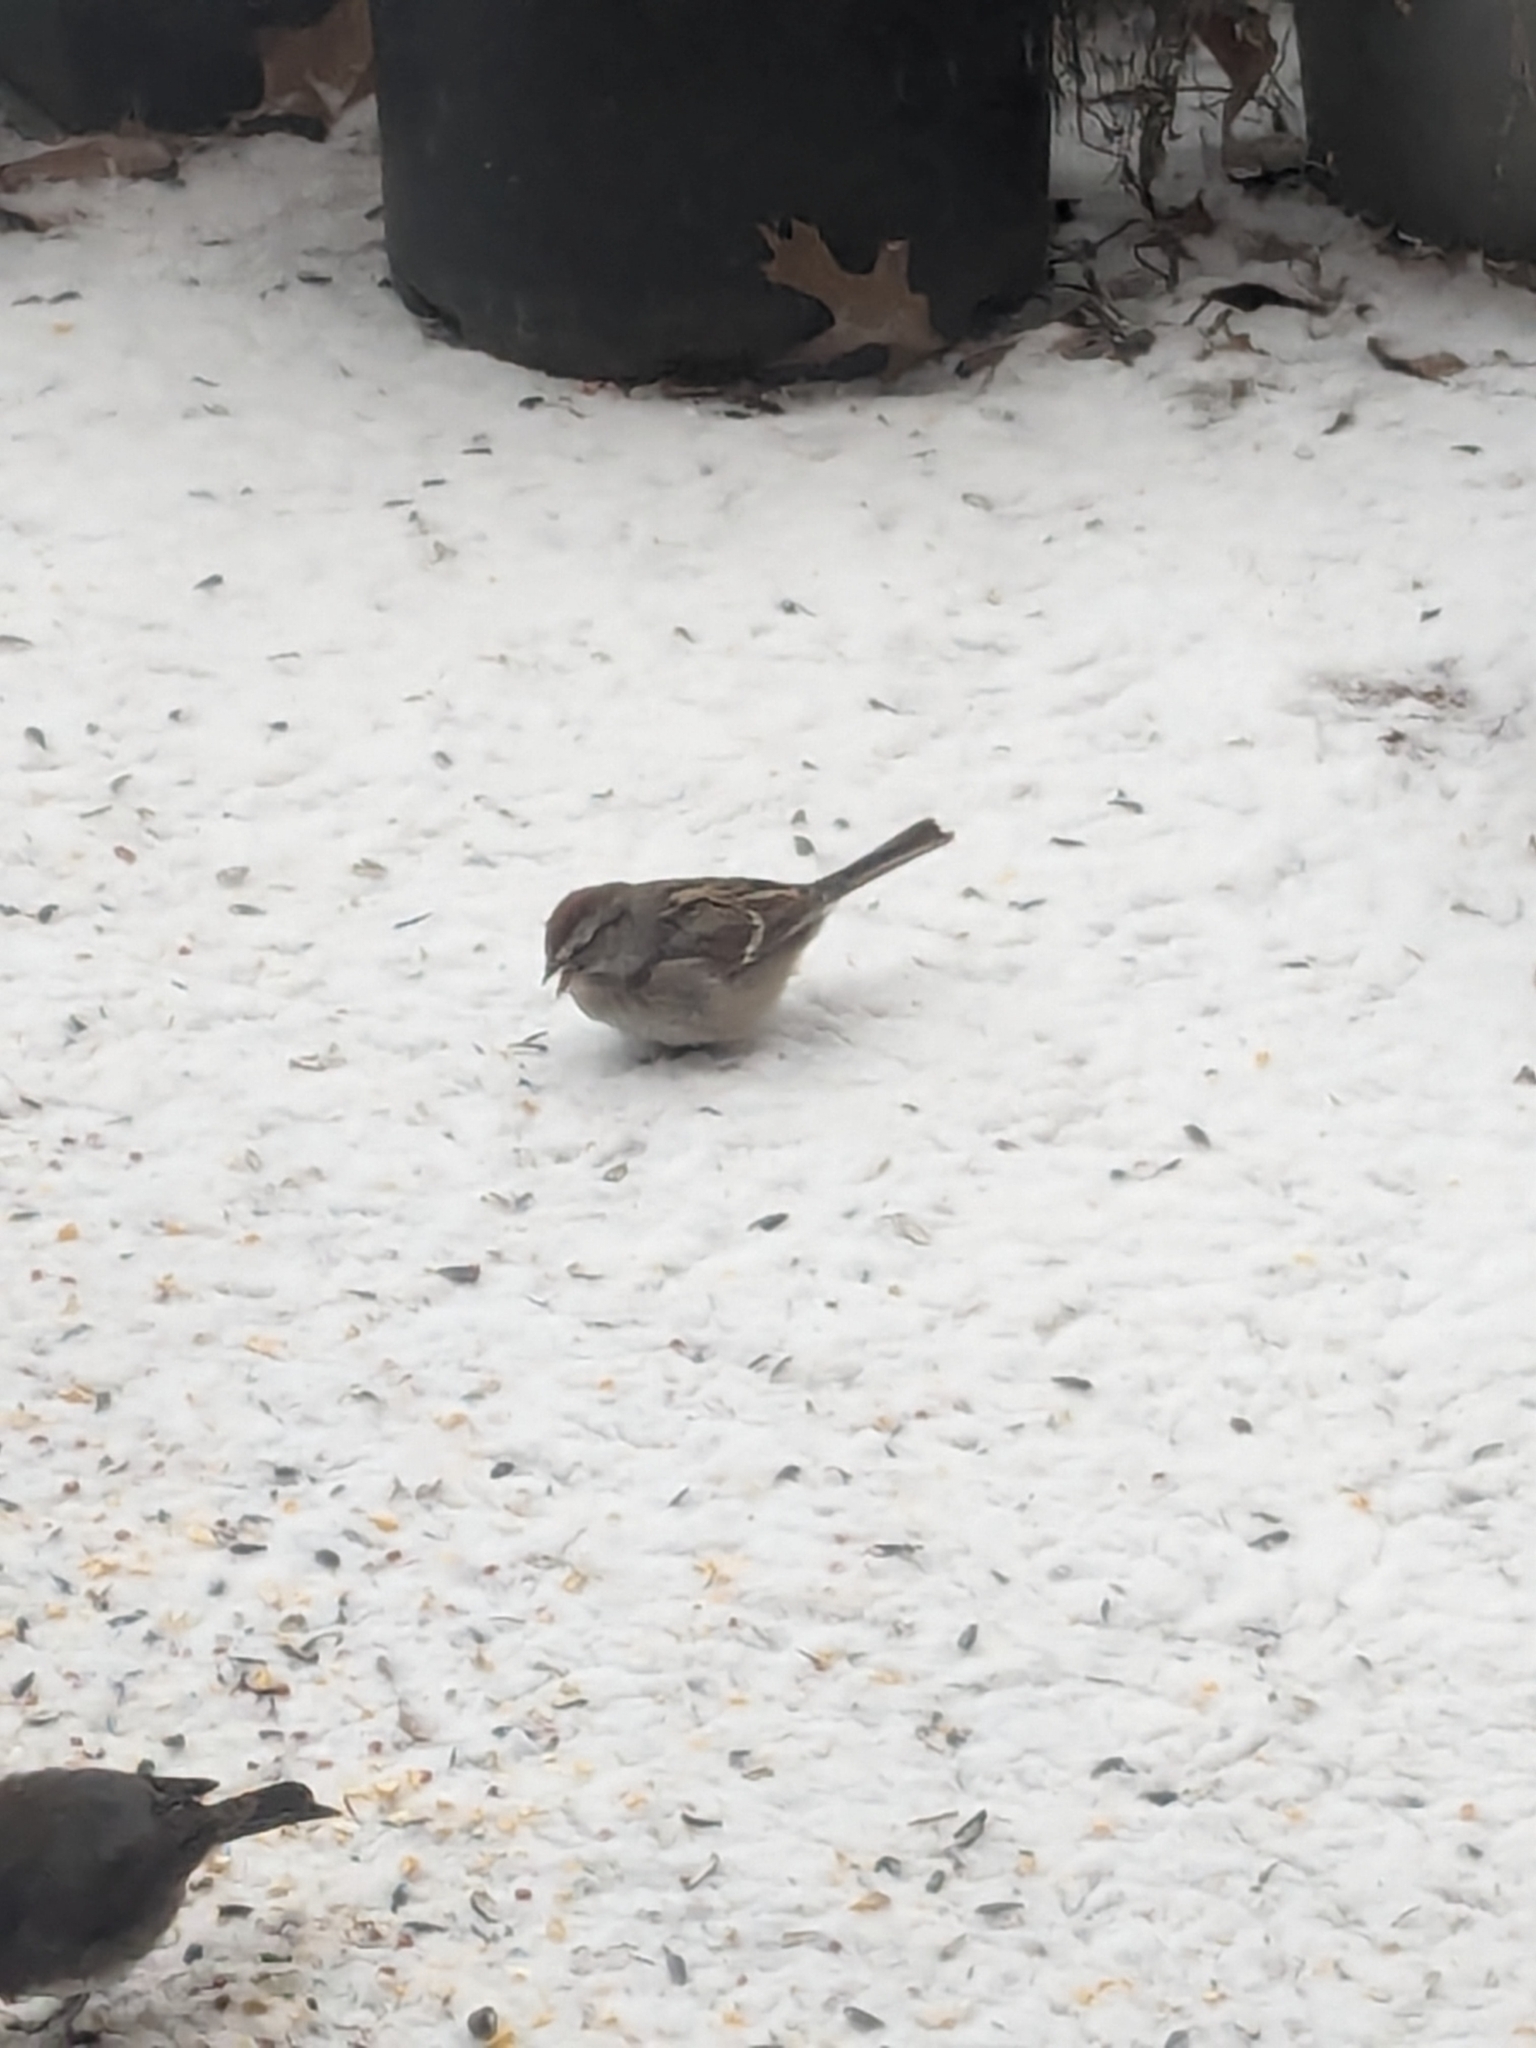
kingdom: Animalia
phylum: Chordata
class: Aves
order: Passeriformes
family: Passerellidae
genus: Spizelloides
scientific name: Spizelloides arborea
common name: American tree sparrow
